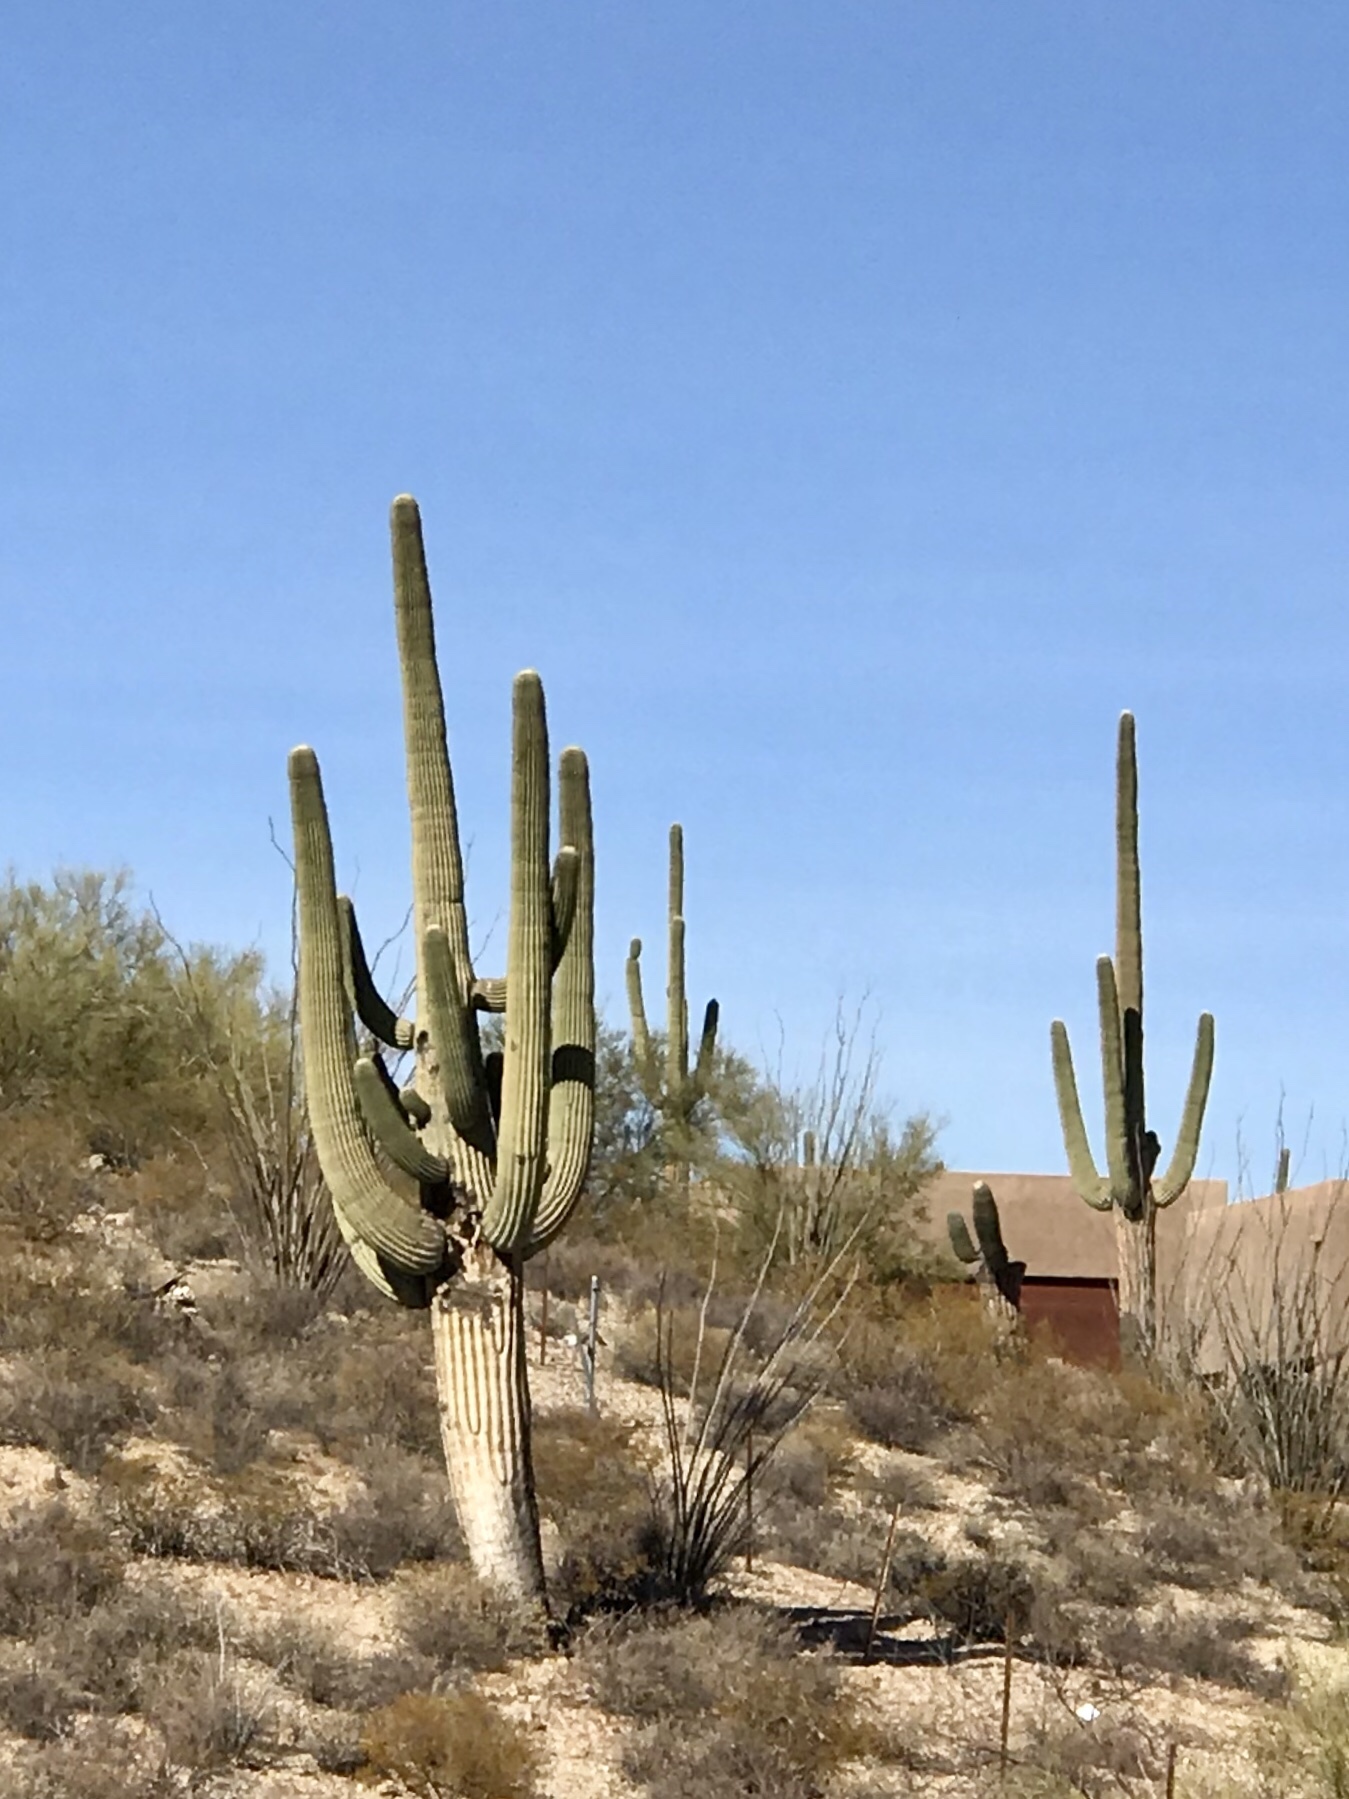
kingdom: Plantae
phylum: Tracheophyta
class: Magnoliopsida
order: Caryophyllales
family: Cactaceae
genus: Carnegiea
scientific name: Carnegiea gigantea
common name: Saguaro
